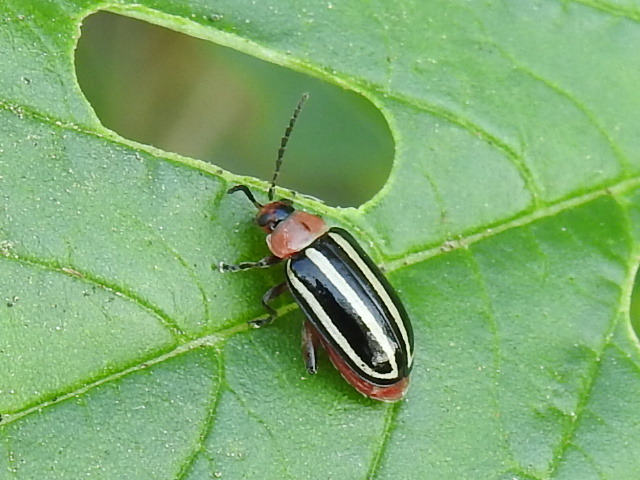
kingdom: Animalia
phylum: Arthropoda
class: Insecta
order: Coleoptera
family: Chrysomelidae
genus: Disonycha
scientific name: Disonycha glabrata
